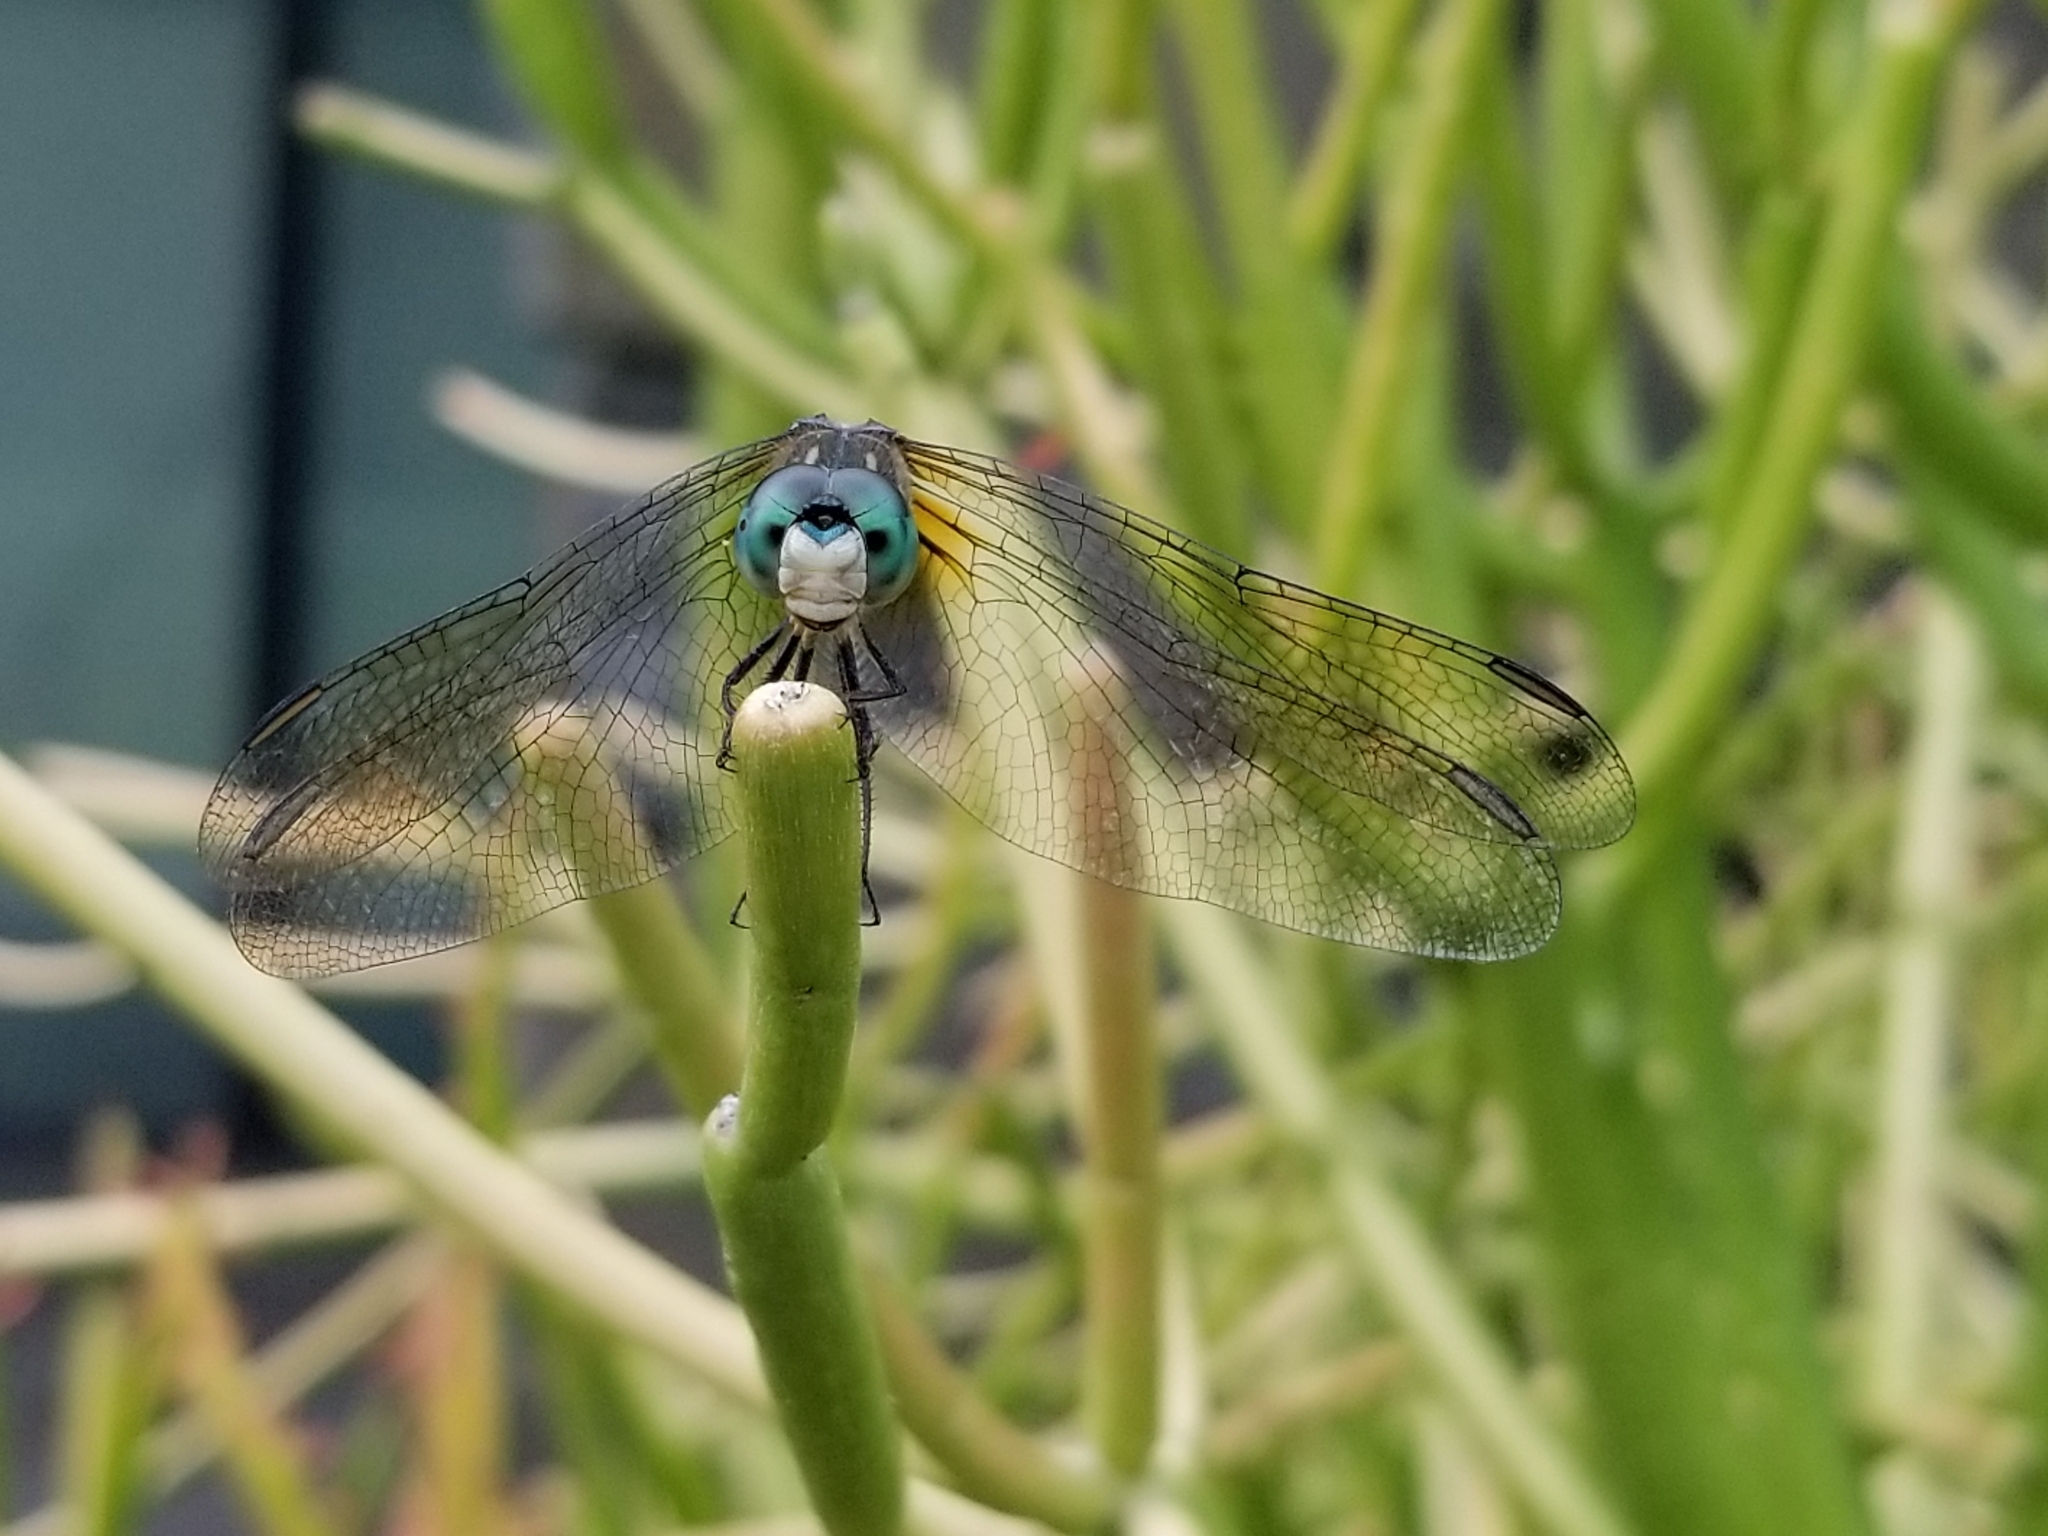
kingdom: Animalia
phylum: Arthropoda
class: Insecta
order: Odonata
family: Libellulidae
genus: Pachydiplax
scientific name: Pachydiplax longipennis
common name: Blue dasher
